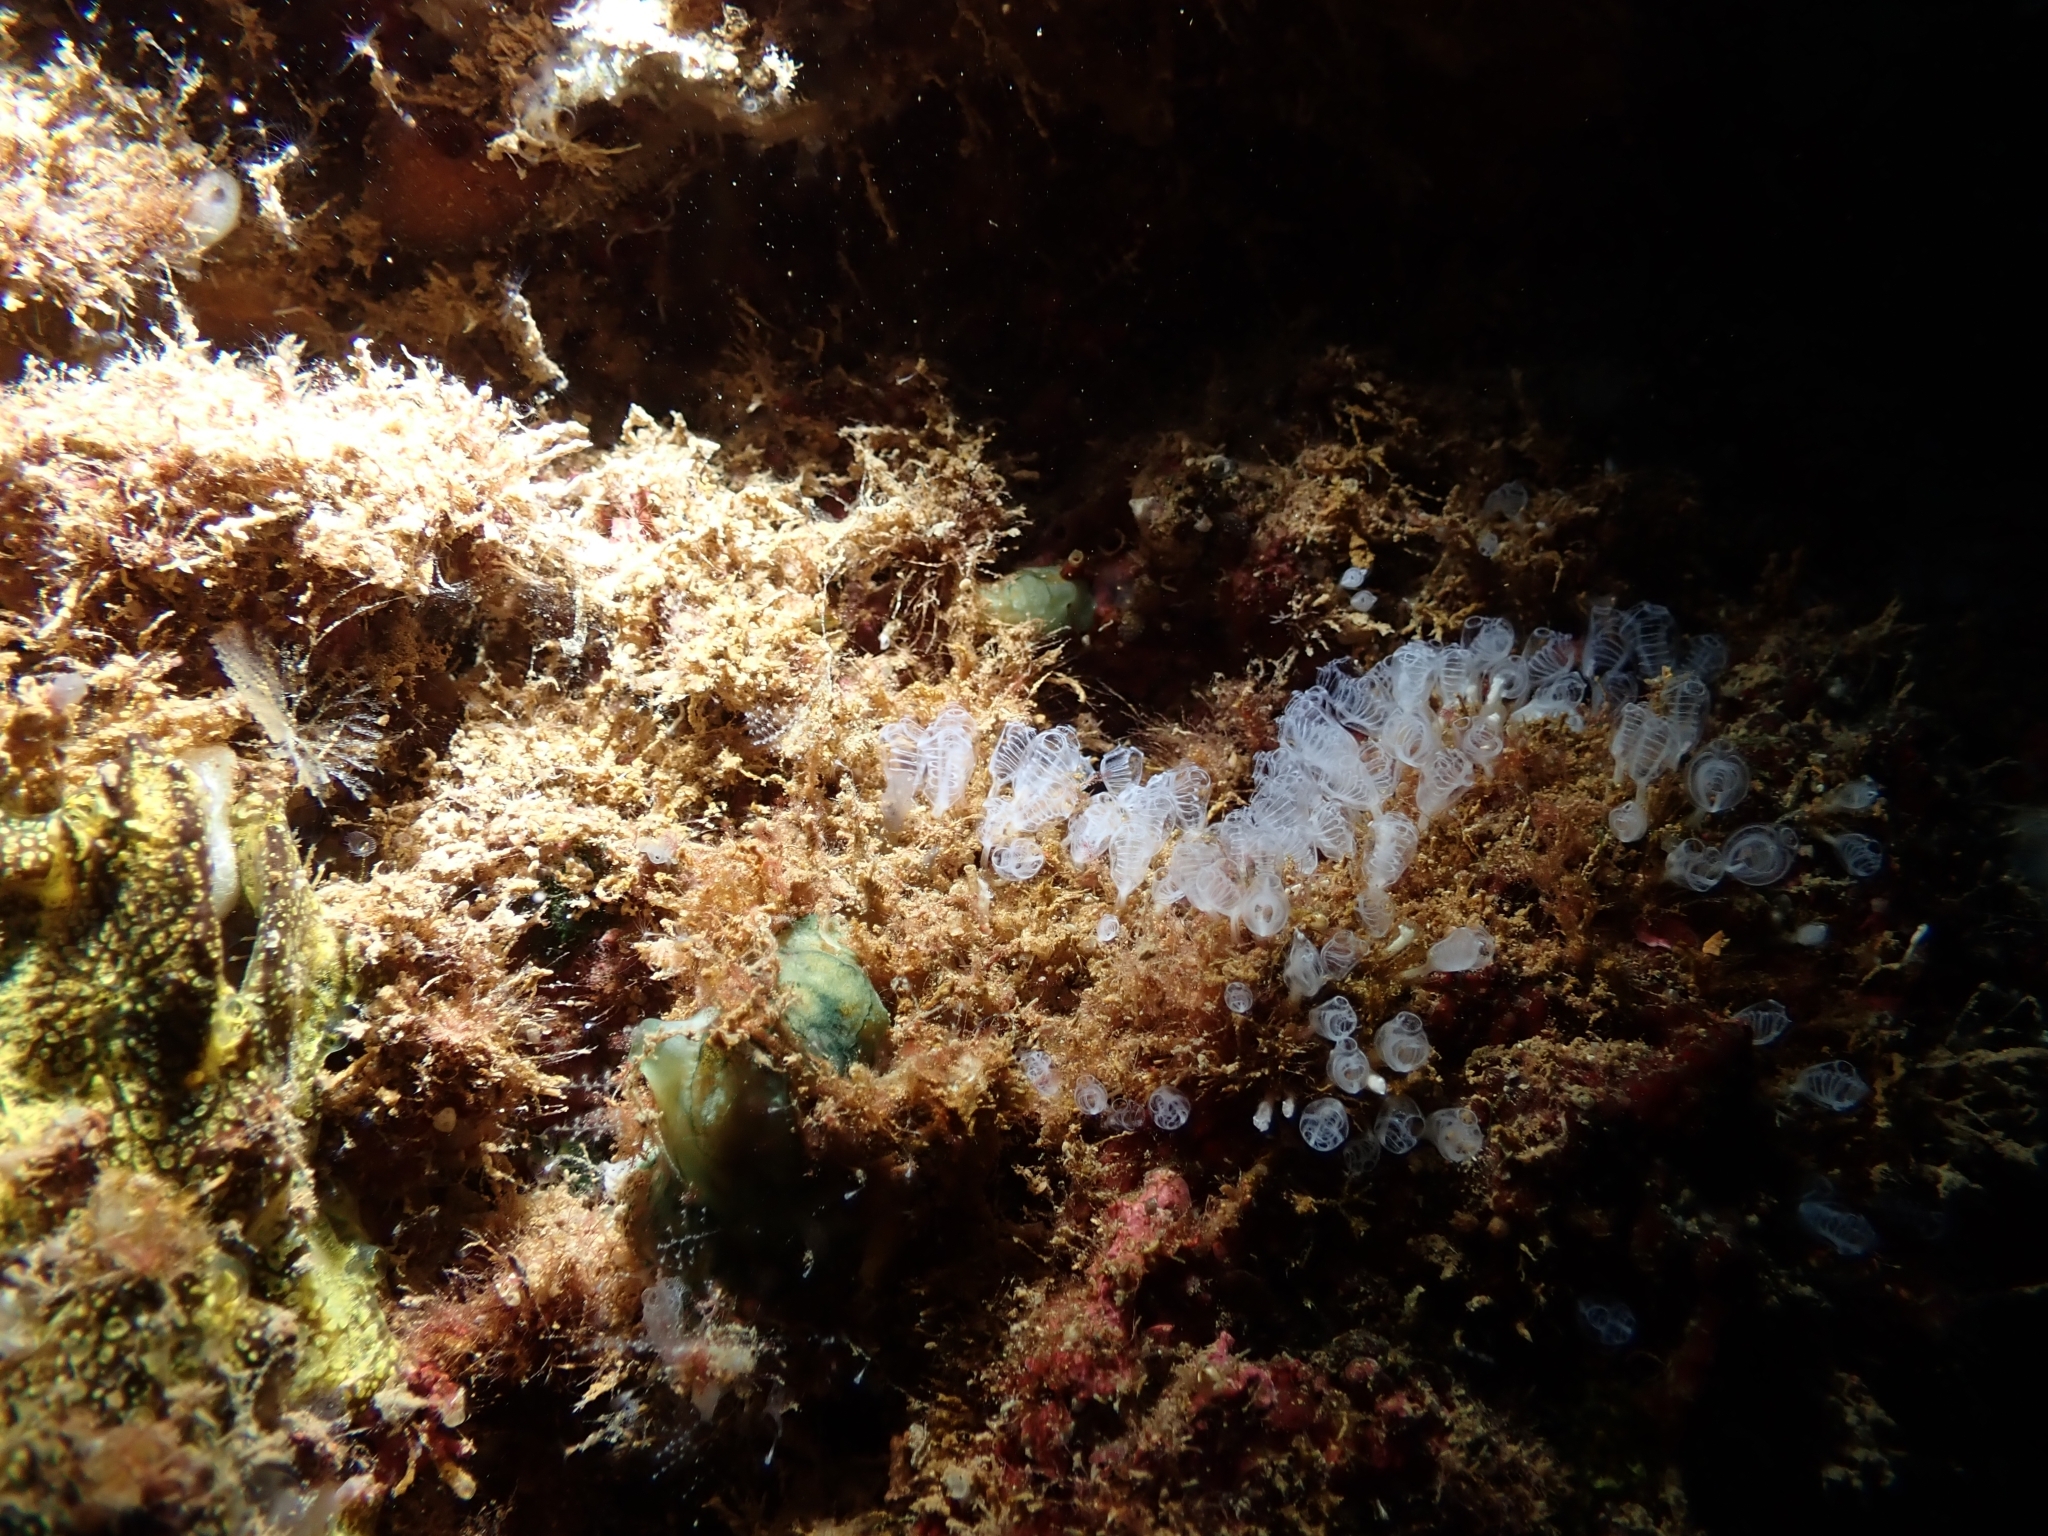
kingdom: Animalia
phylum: Chordata
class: Ascidiacea
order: Aplousobranchia
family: Clavelinidae
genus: Pycnoclavella
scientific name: Pycnoclavella communis
